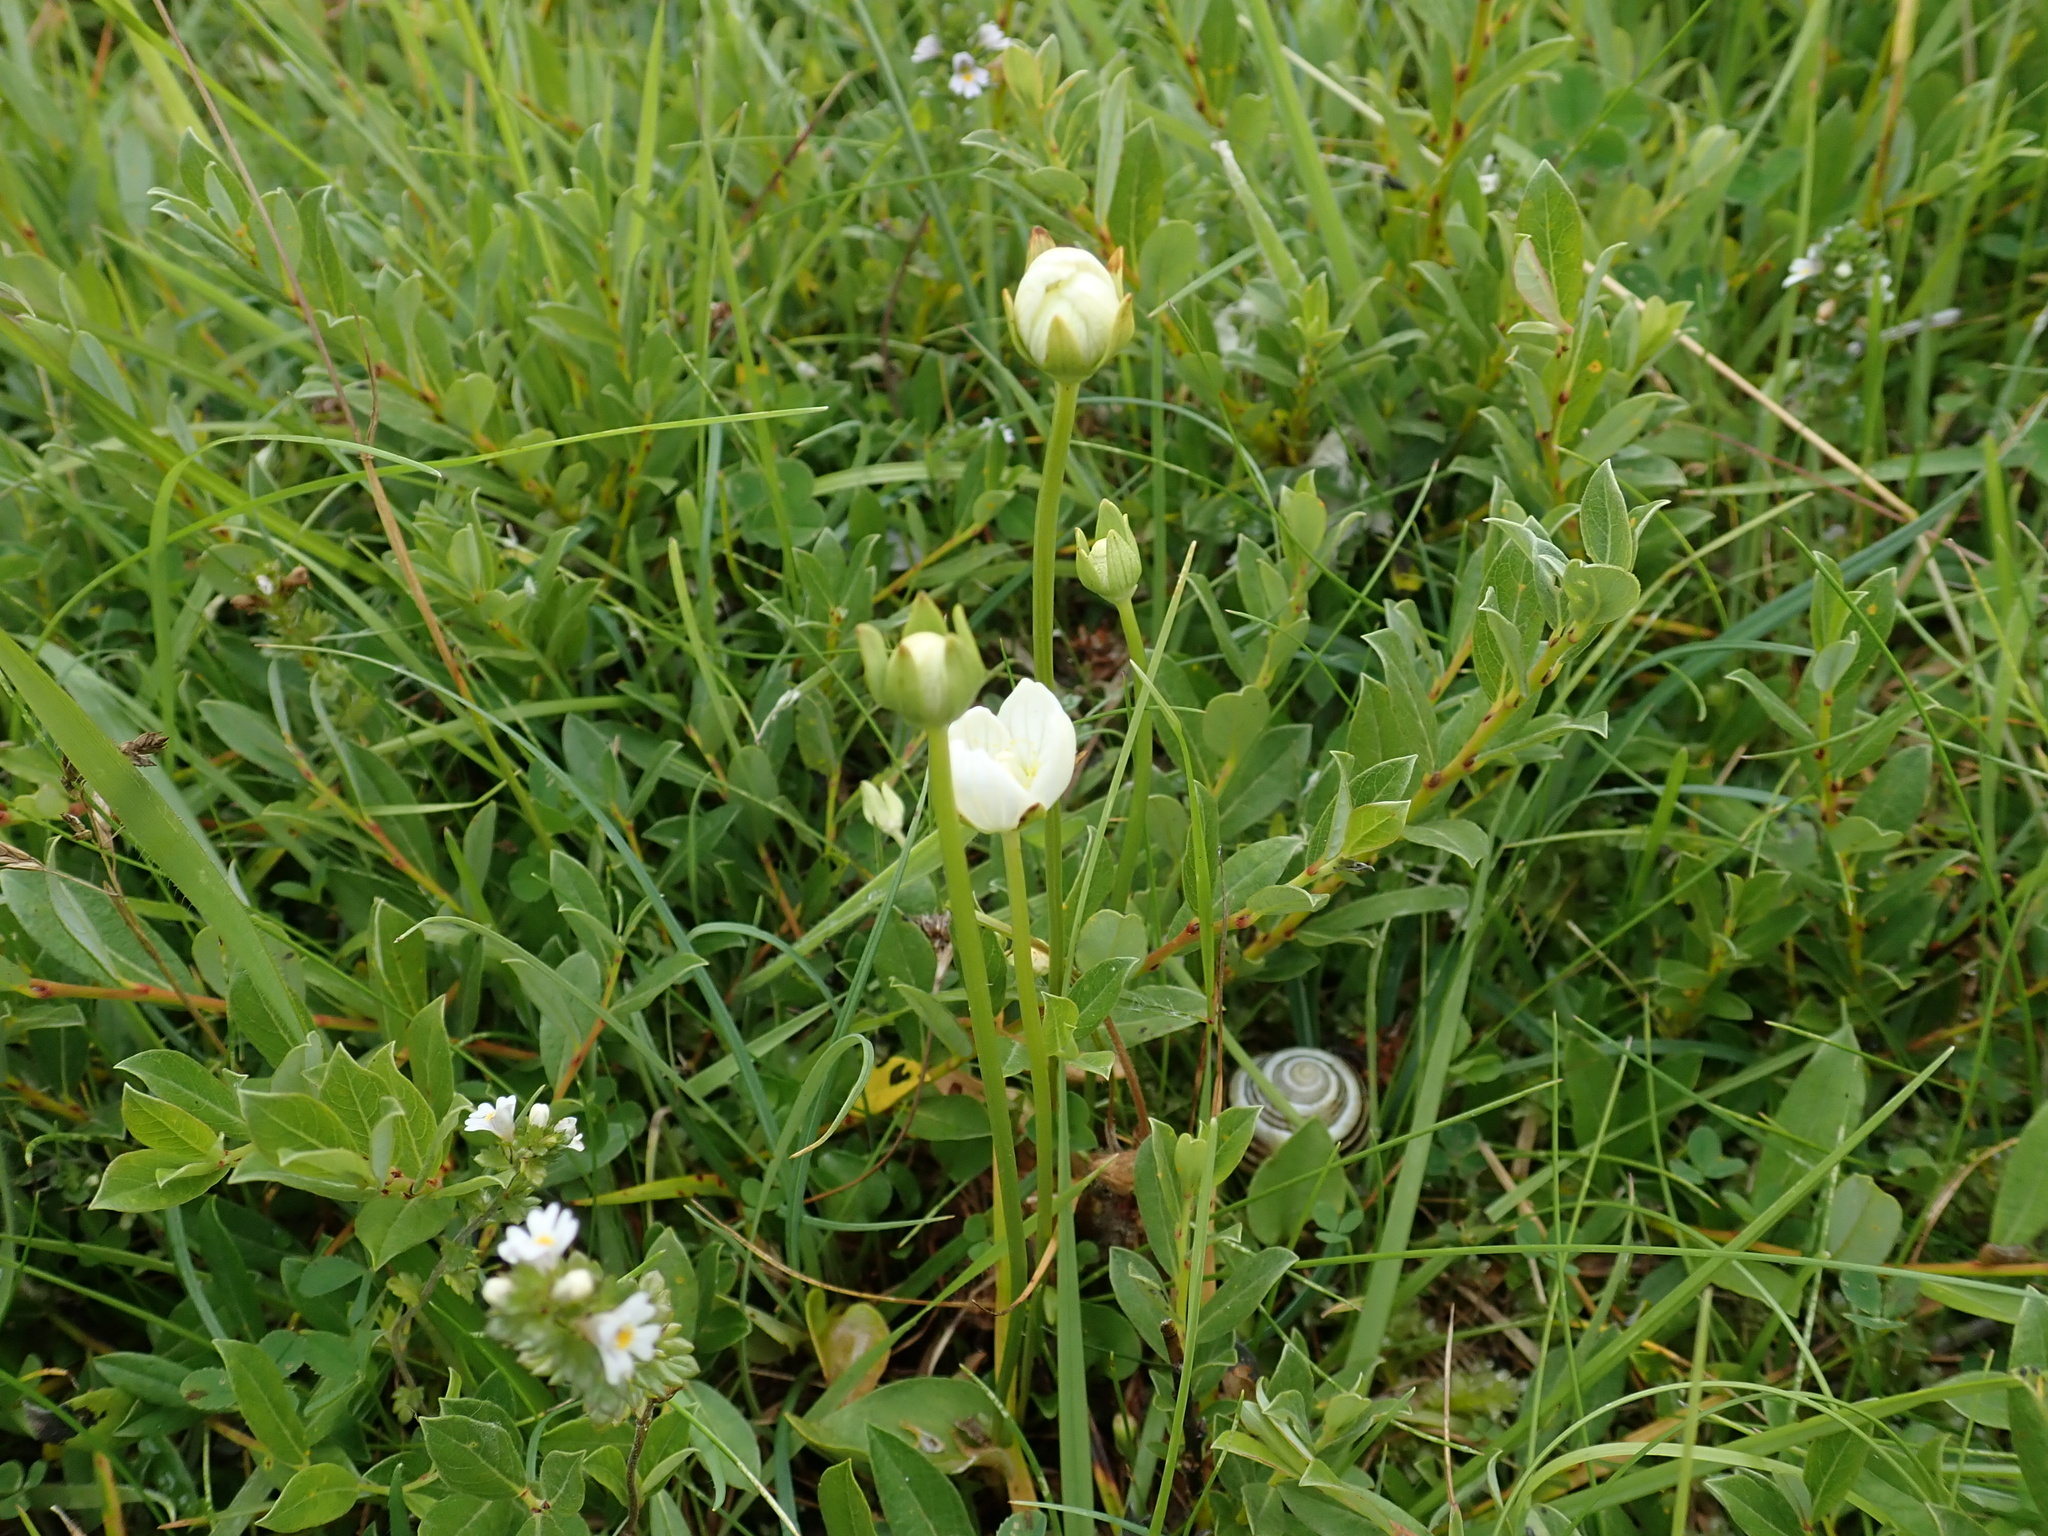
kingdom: Plantae
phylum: Tracheophyta
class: Magnoliopsida
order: Celastrales
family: Parnassiaceae
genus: Parnassia
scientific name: Parnassia palustris
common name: Grass-of-parnassus
